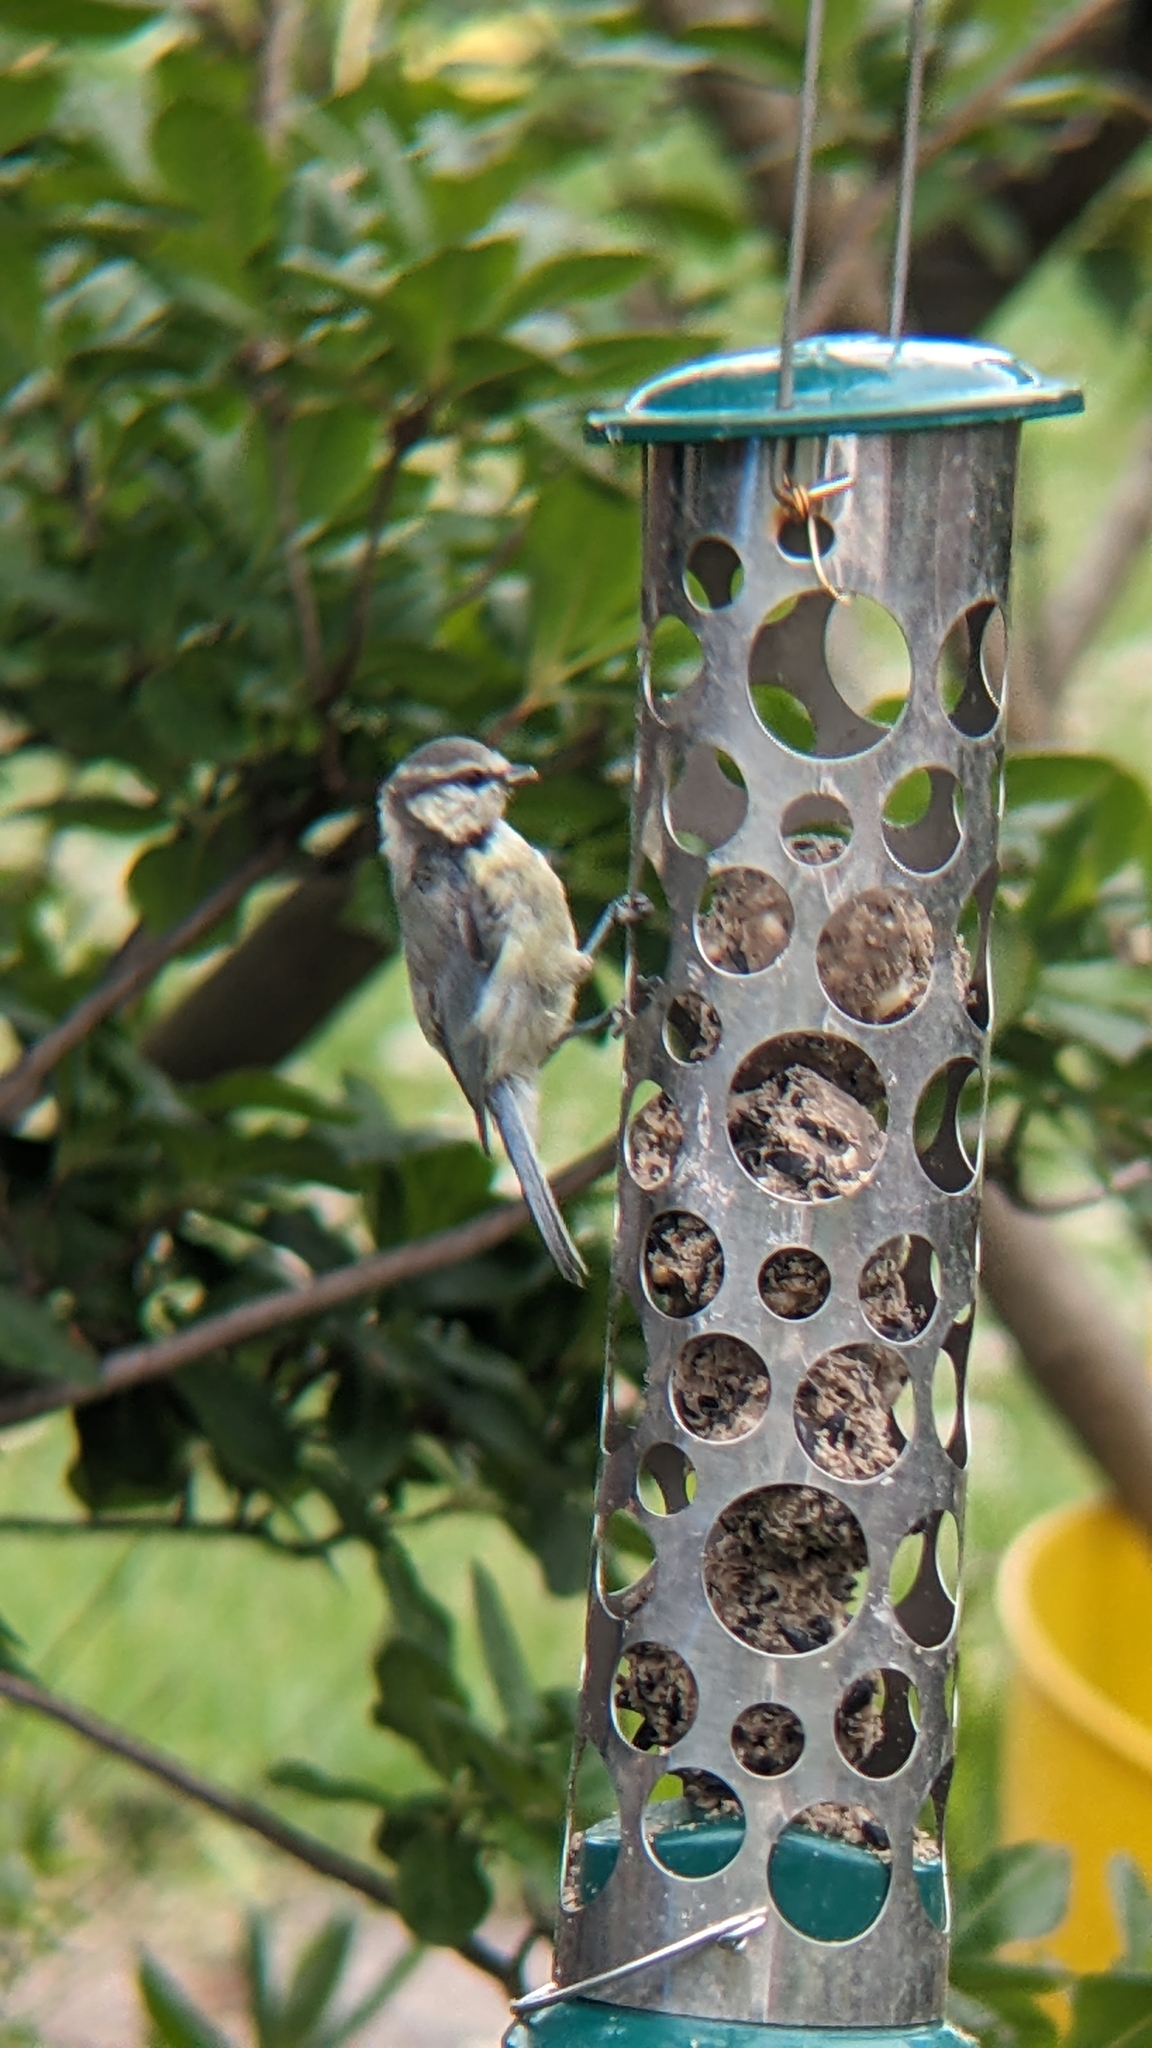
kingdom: Animalia
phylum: Chordata
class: Aves
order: Passeriformes
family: Paridae
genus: Cyanistes
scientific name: Cyanistes caeruleus
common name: Eurasian blue tit
